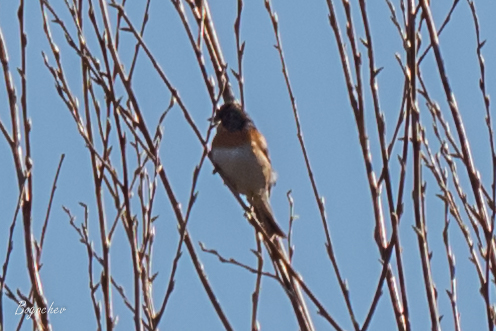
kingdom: Animalia
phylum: Chordata
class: Aves
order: Passeriformes
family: Fringillidae
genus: Fringilla
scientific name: Fringilla montifringilla
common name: Brambling
